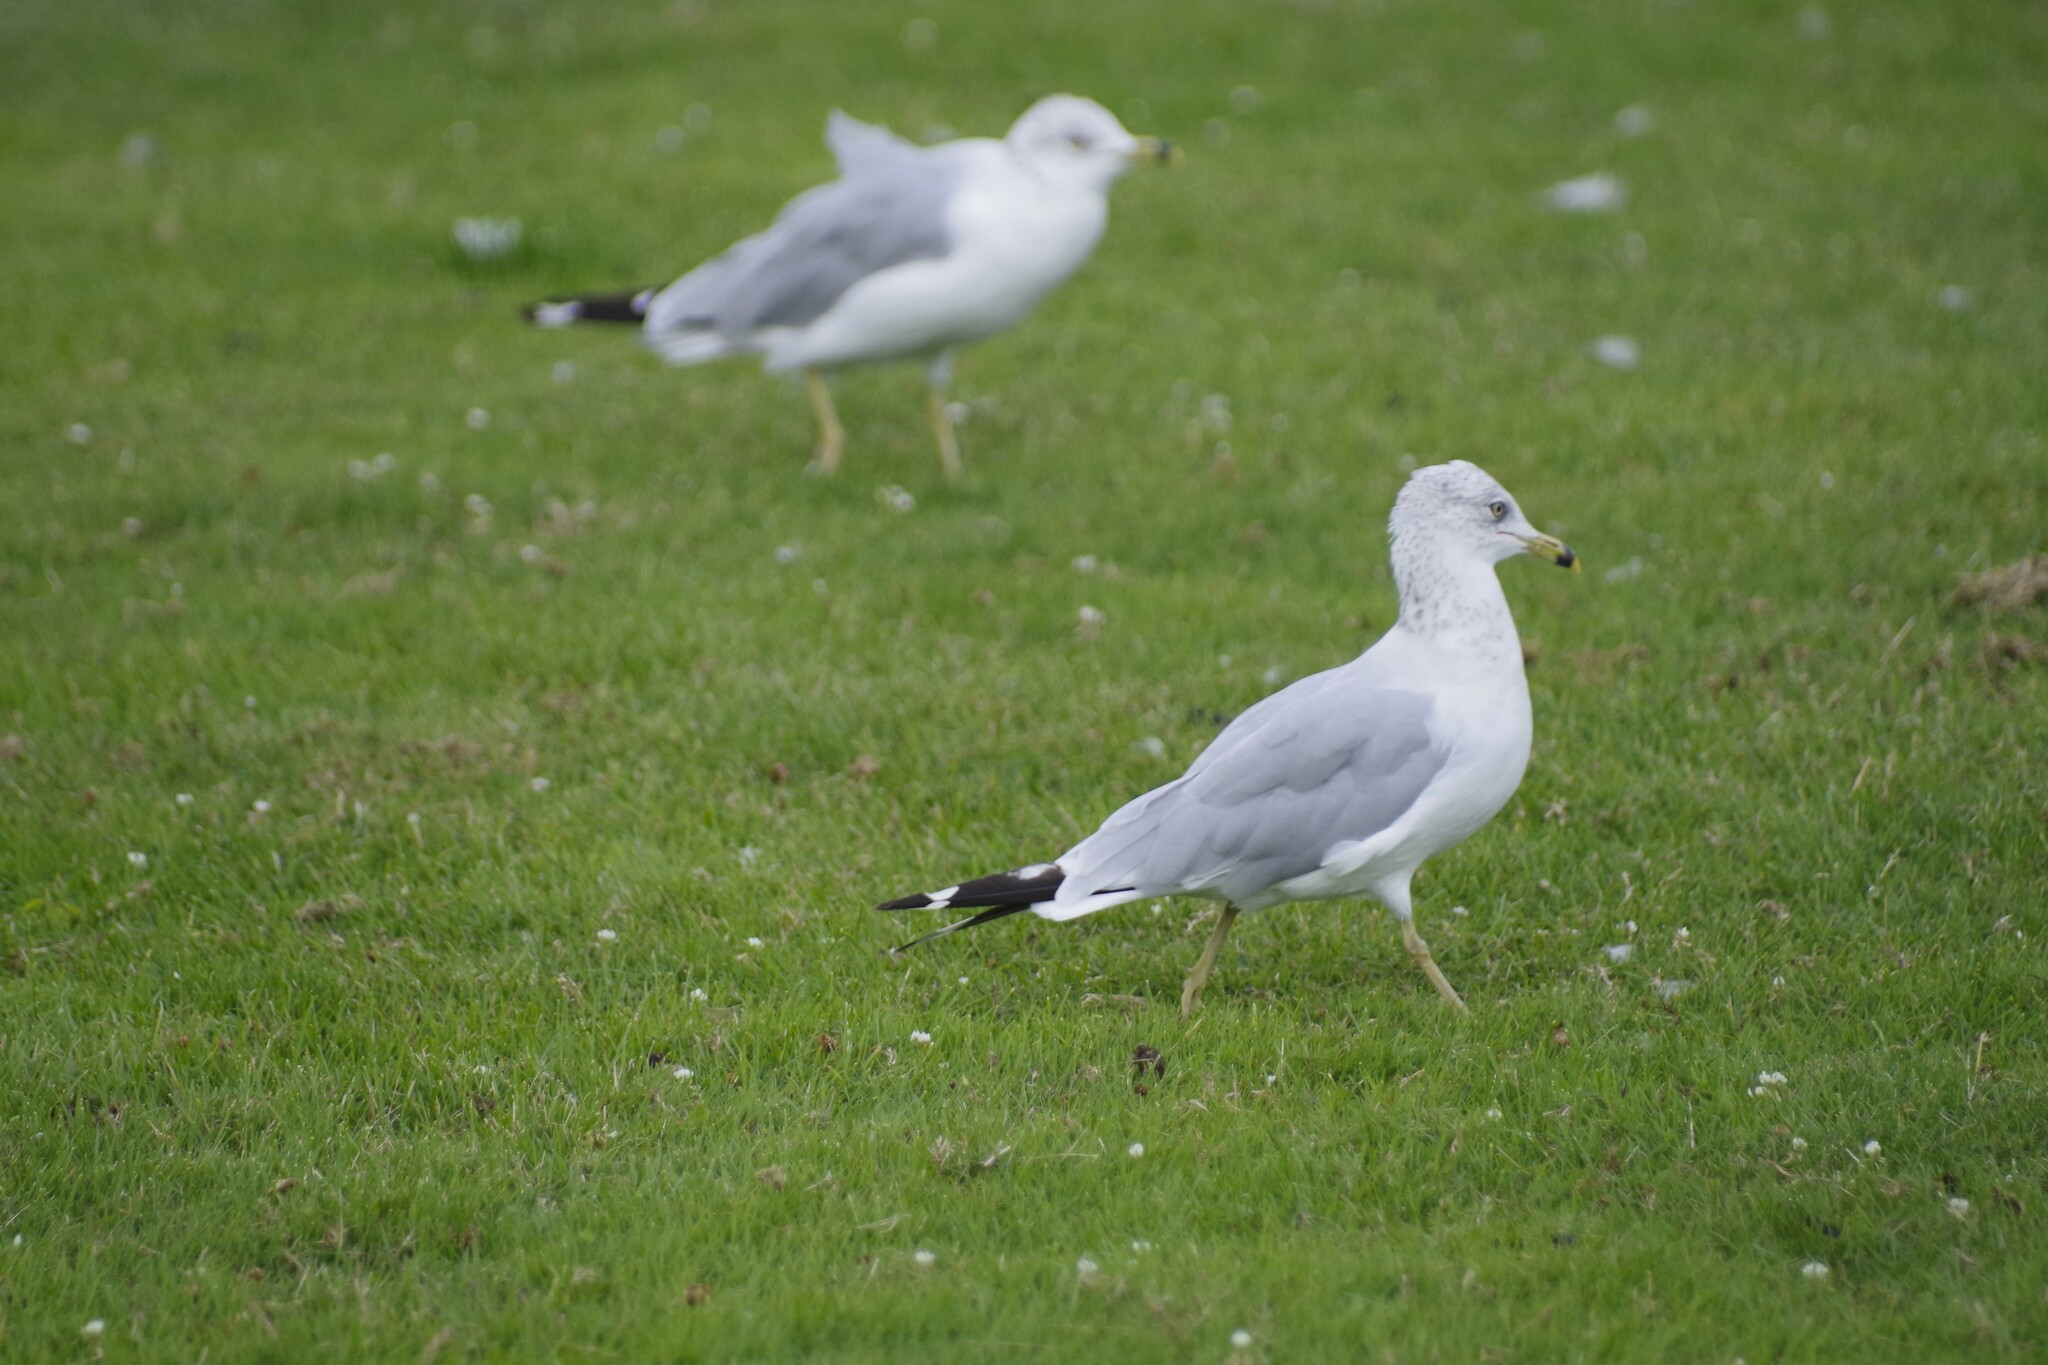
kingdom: Animalia
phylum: Chordata
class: Aves
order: Charadriiformes
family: Laridae
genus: Larus
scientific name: Larus delawarensis
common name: Ring-billed gull
